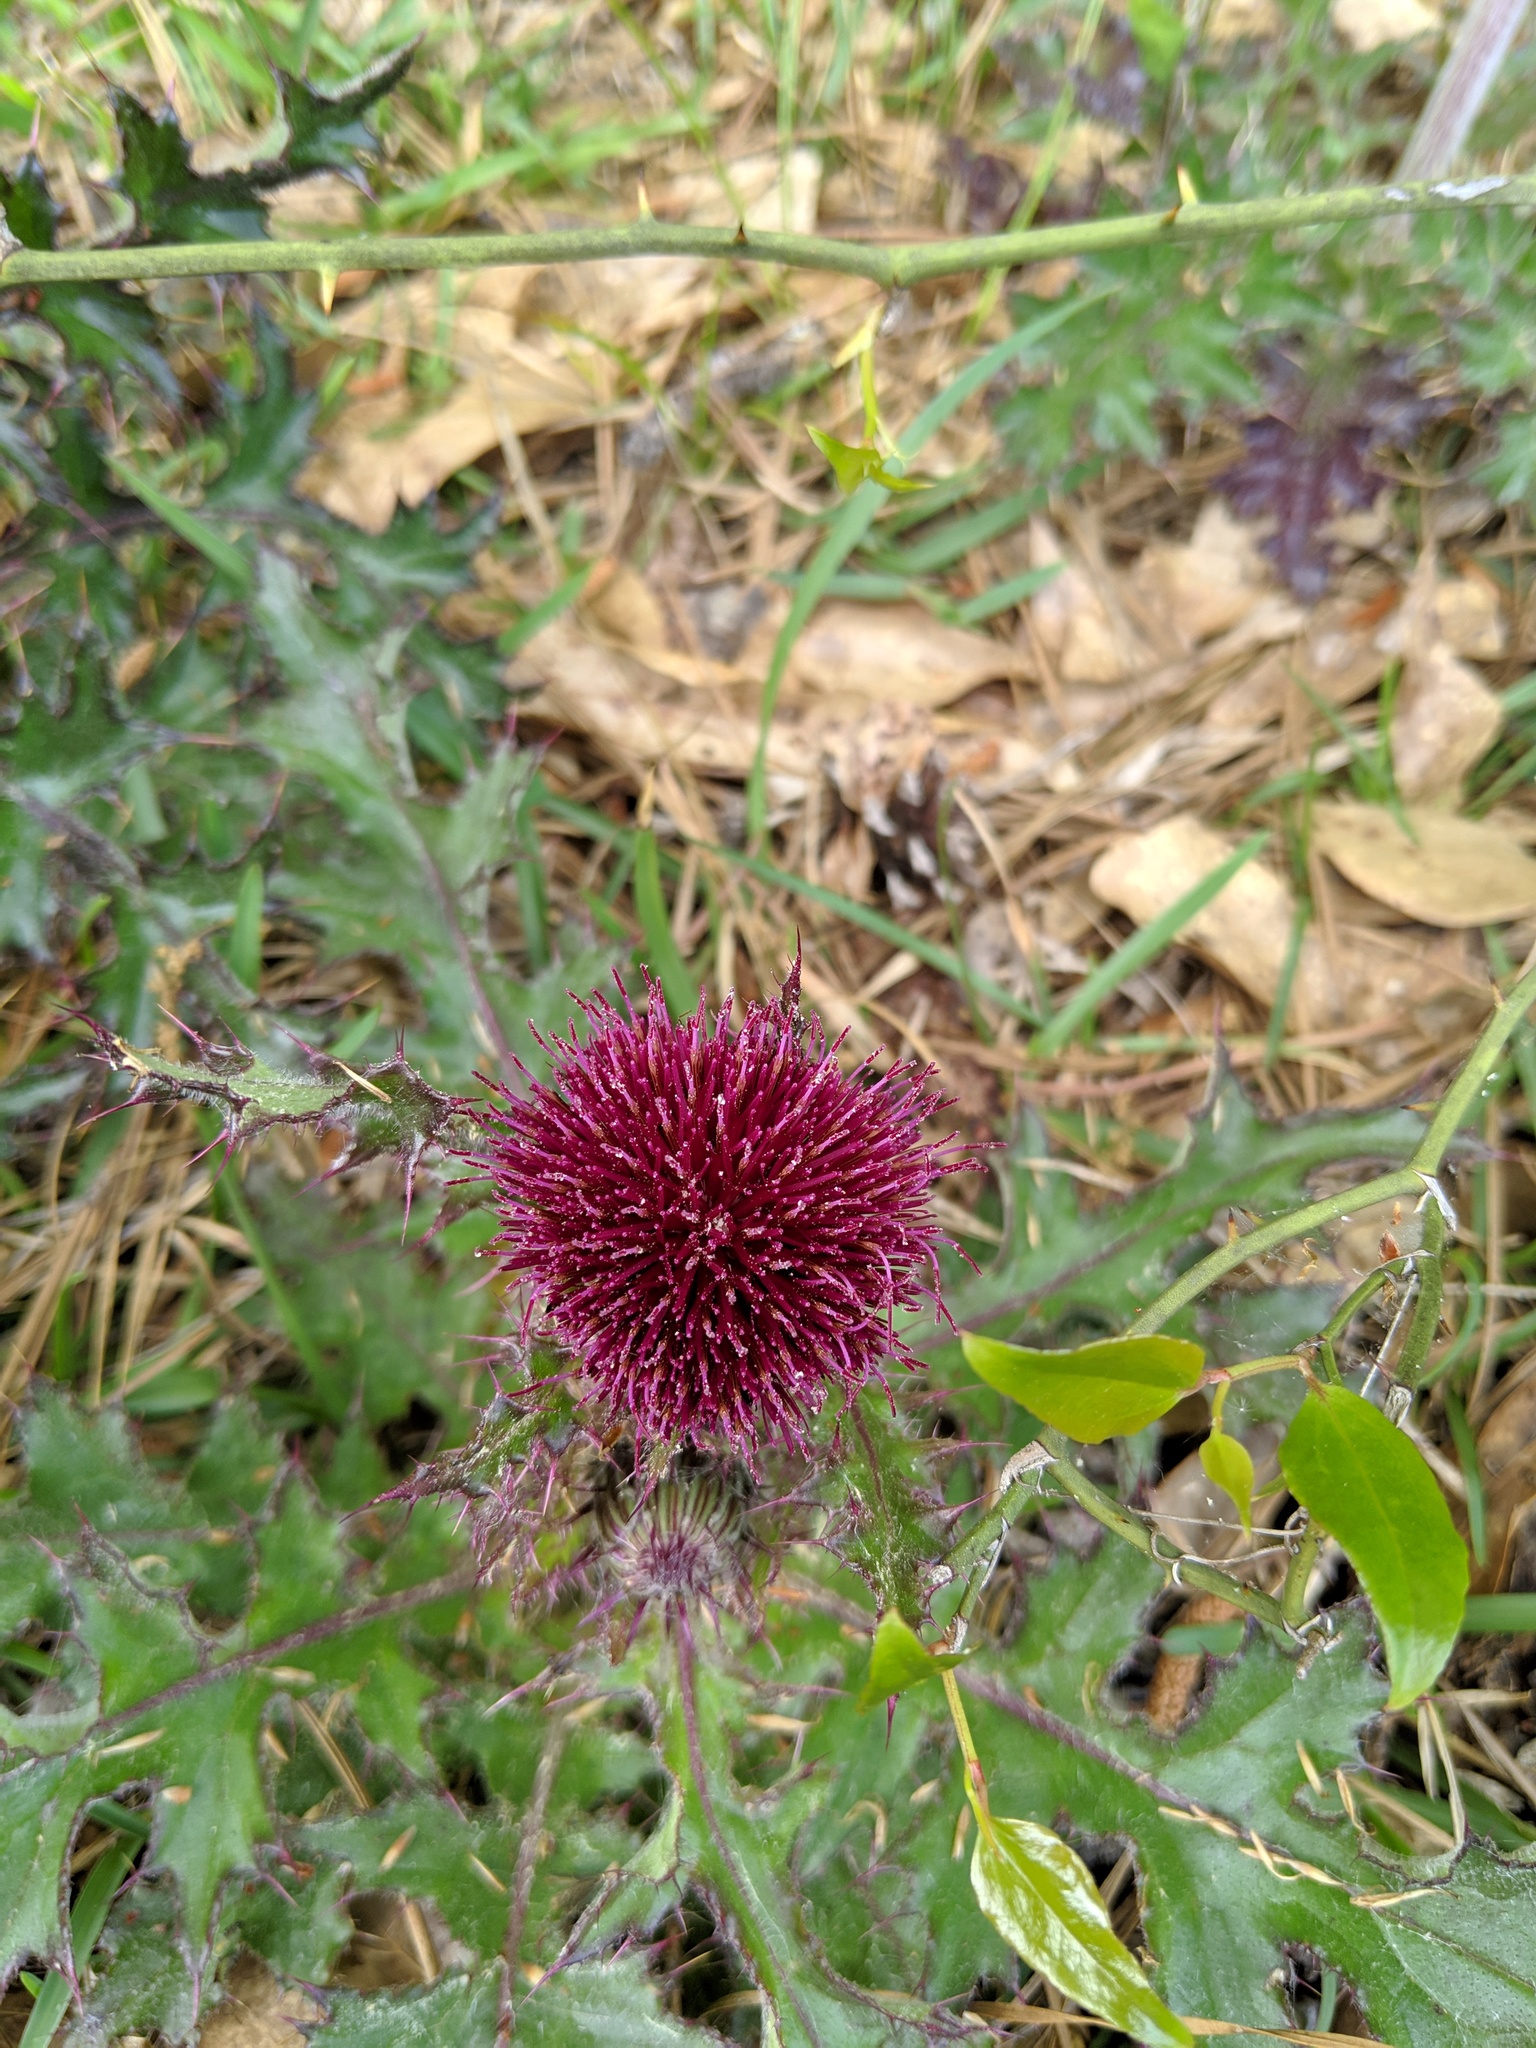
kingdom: Plantae
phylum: Tracheophyta
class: Magnoliopsida
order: Asterales
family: Asteraceae
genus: Cirsium
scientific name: Cirsium horridulum
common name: Bristly thistle
